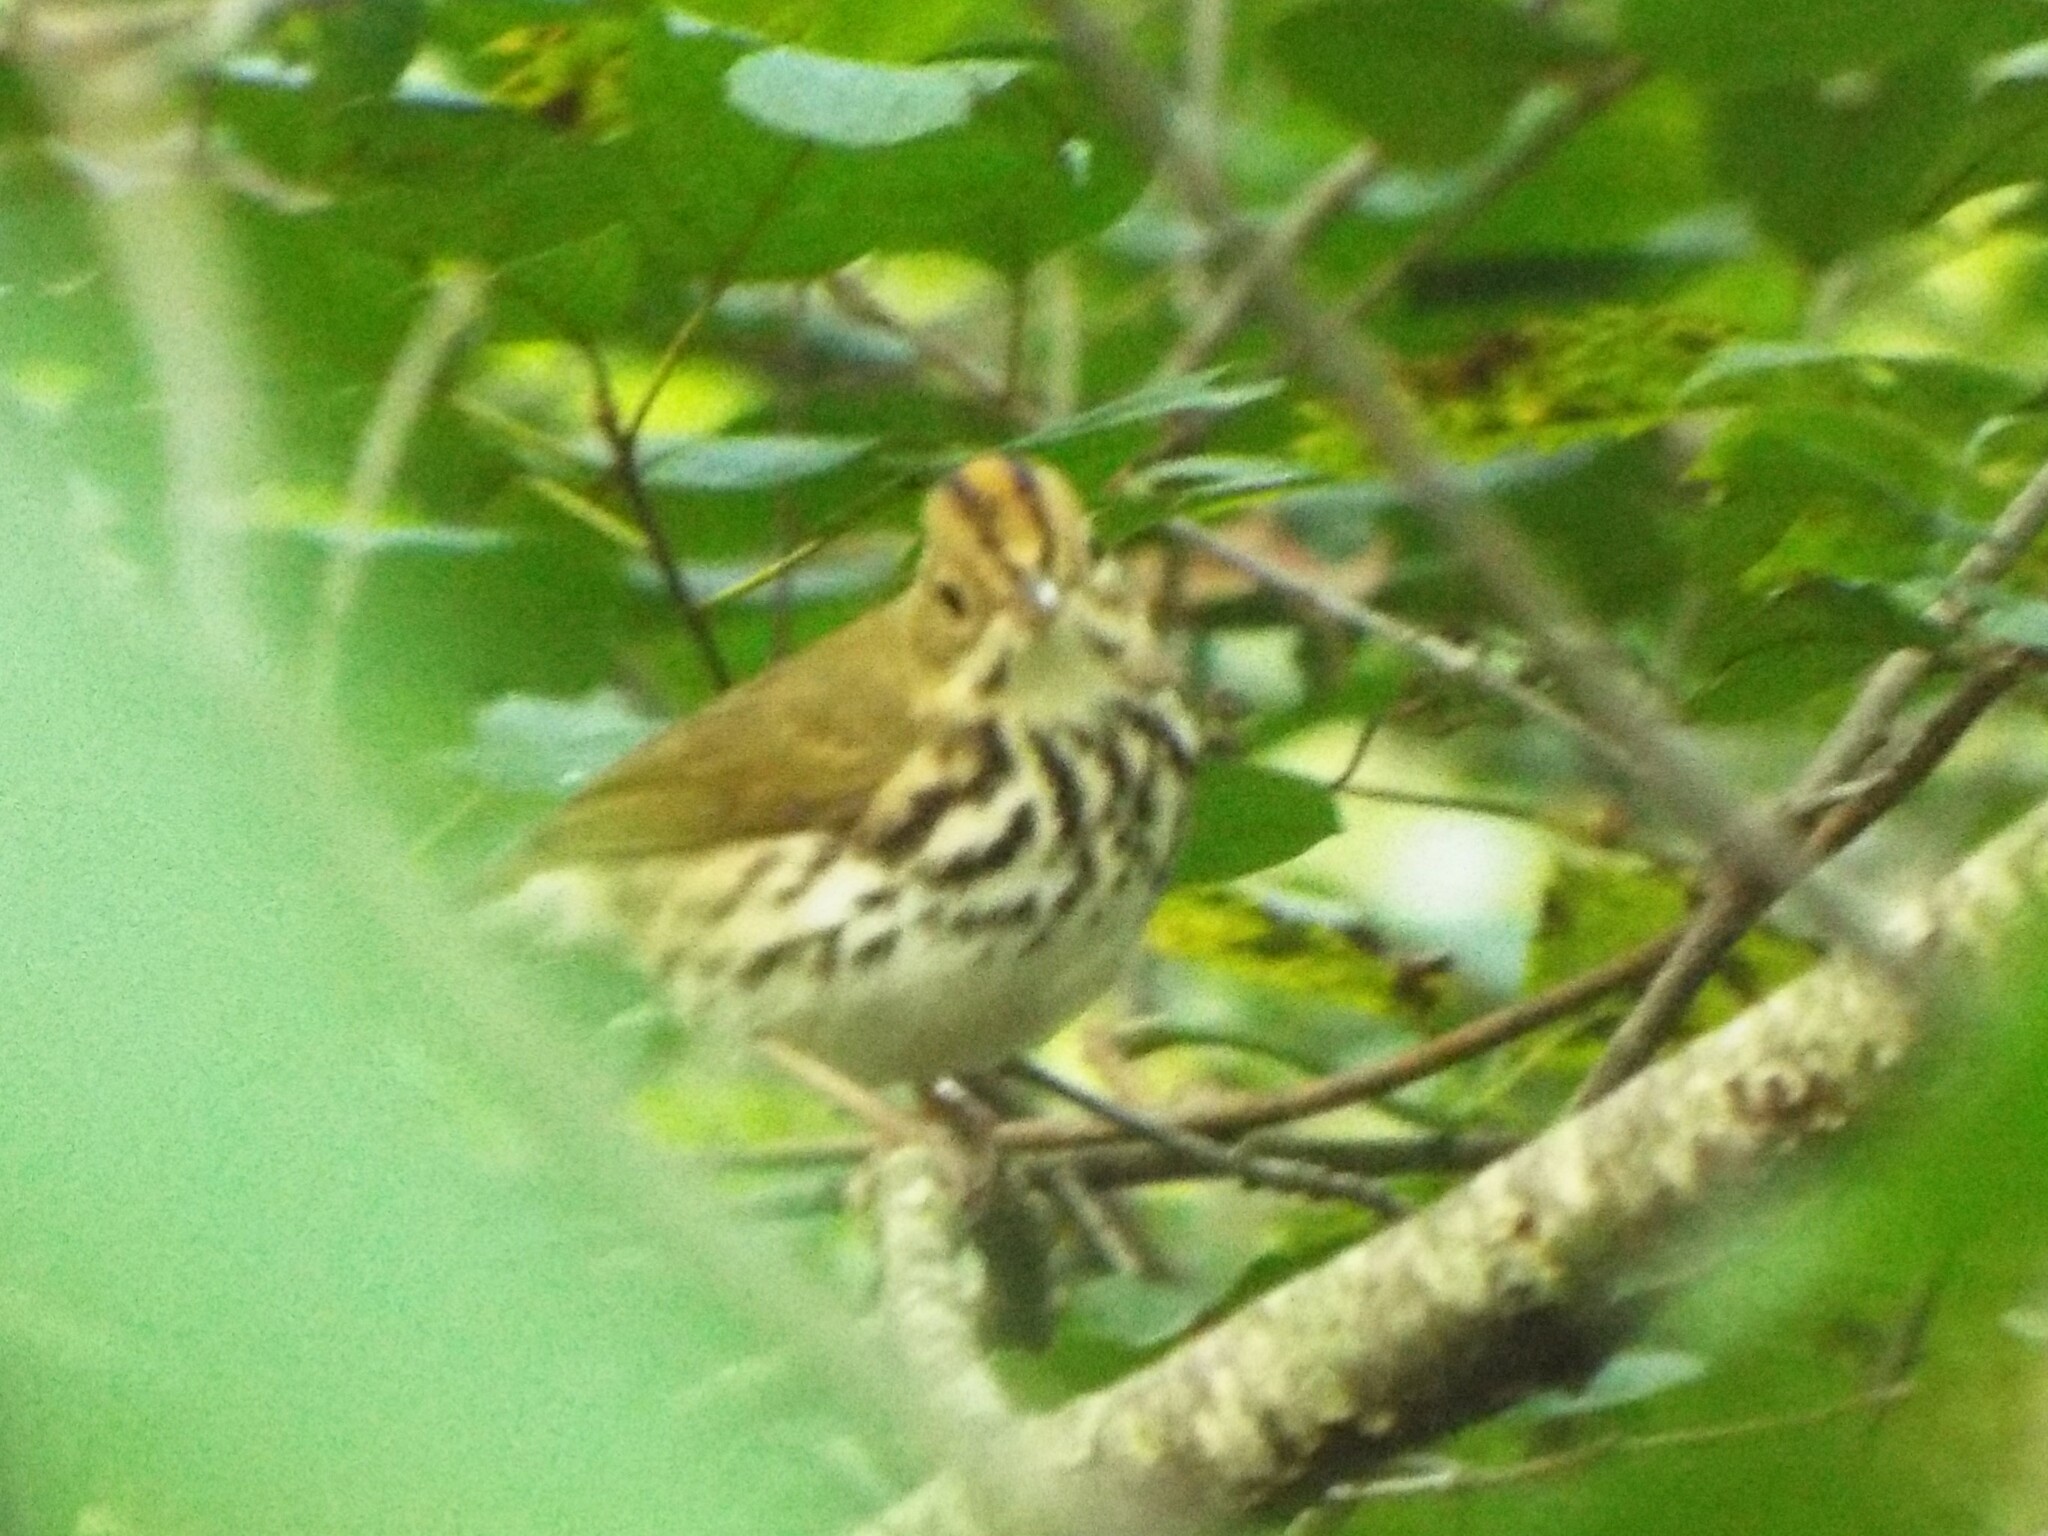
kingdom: Animalia
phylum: Chordata
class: Aves
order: Passeriformes
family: Parulidae
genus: Seiurus
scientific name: Seiurus aurocapilla
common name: Ovenbird
